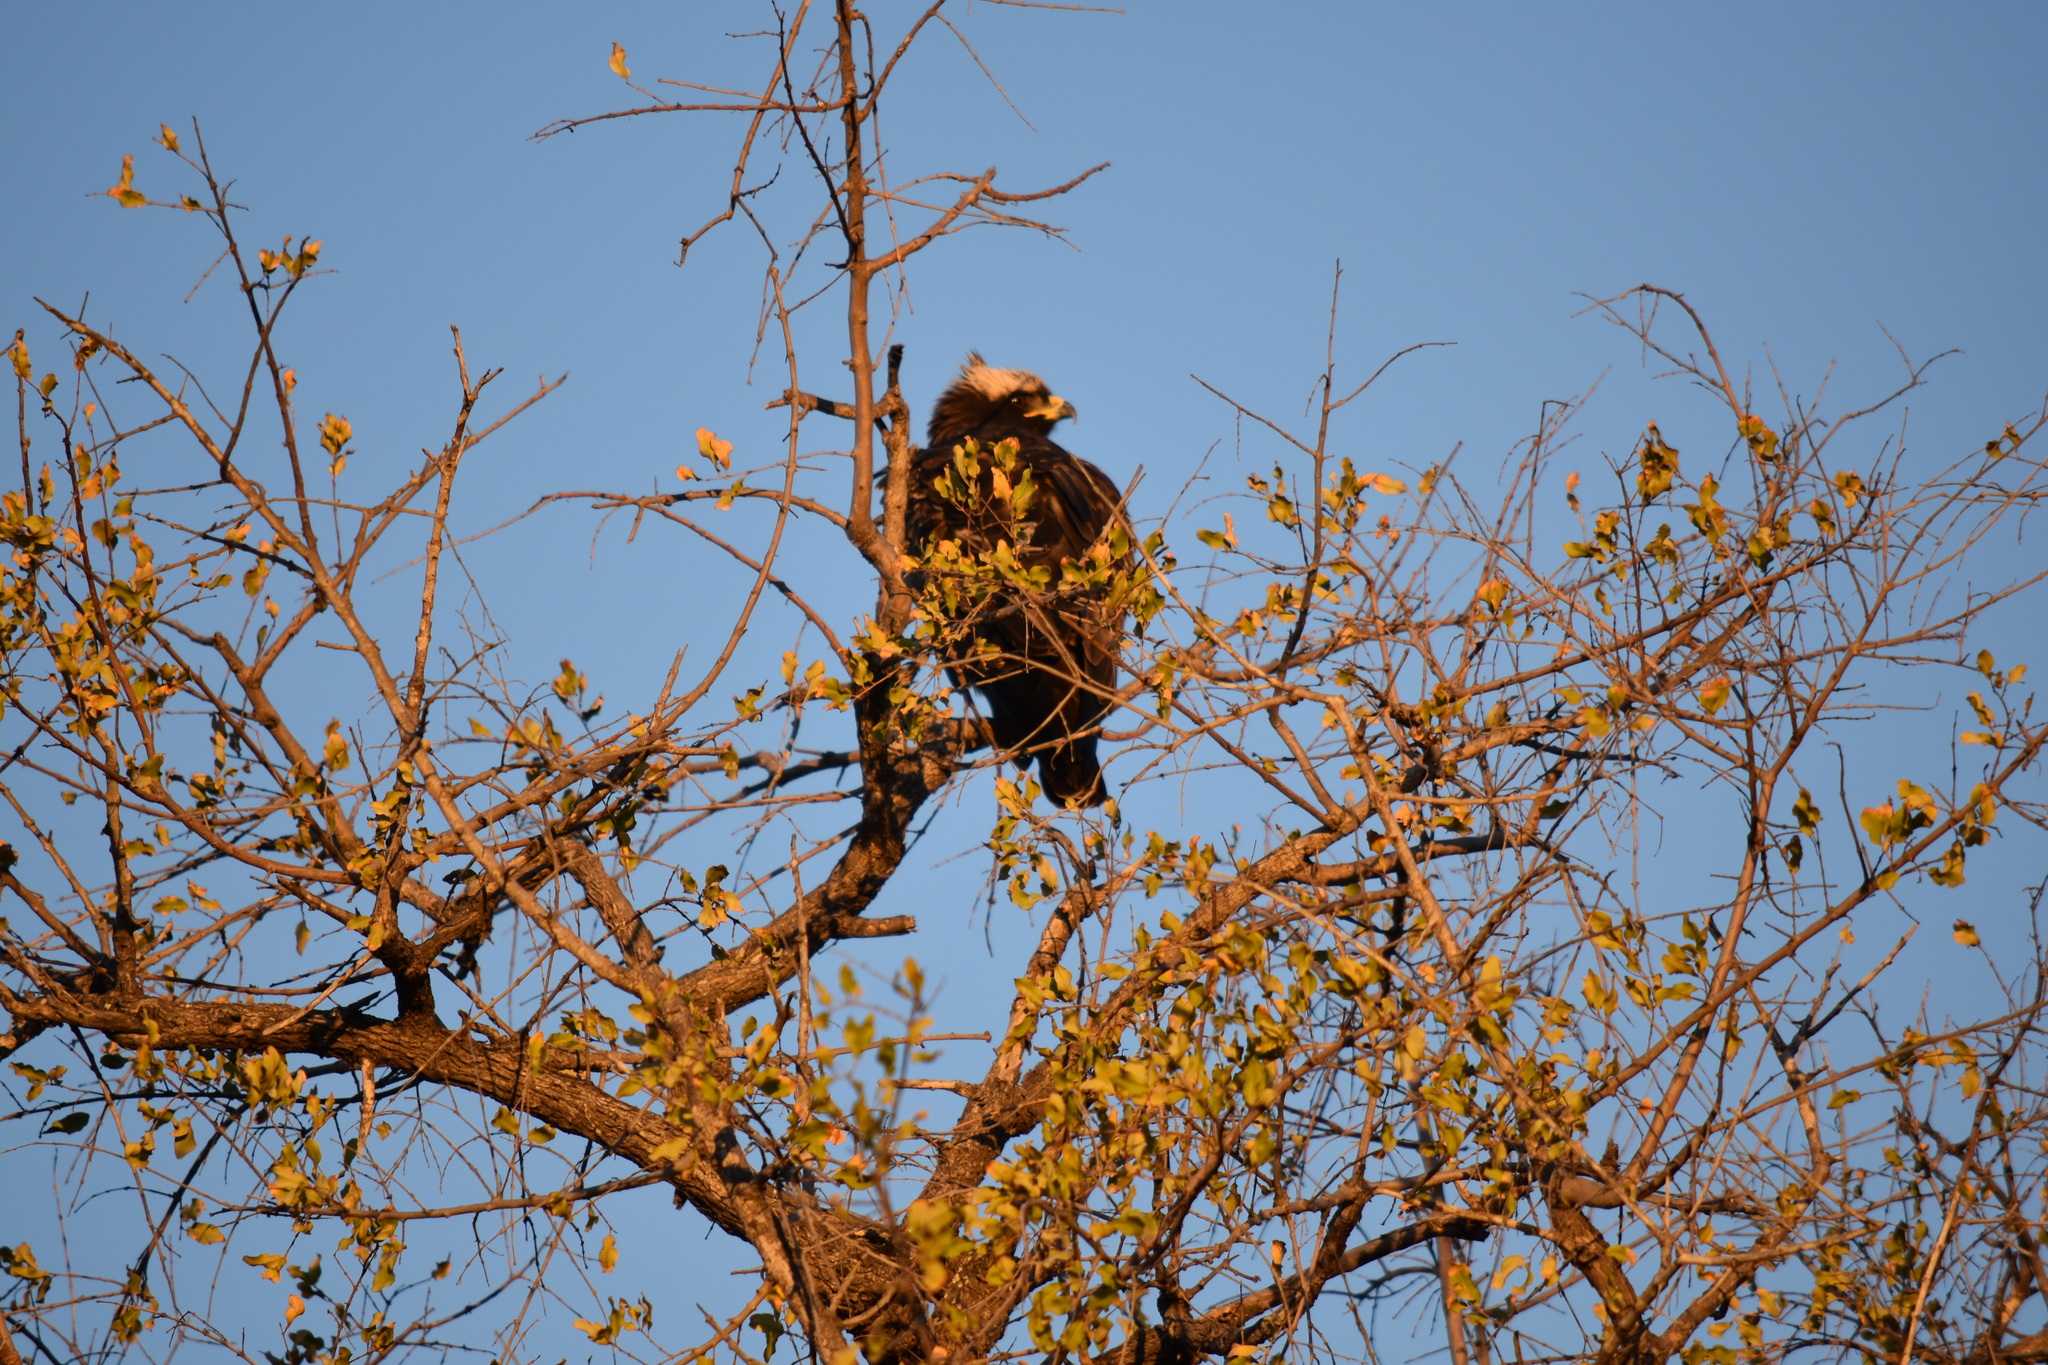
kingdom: Animalia
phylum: Chordata
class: Aves
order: Accipitriformes
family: Accipitridae
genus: Hieraaetus
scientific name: Hieraaetus wahlbergi
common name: Wahlberg's eagle
